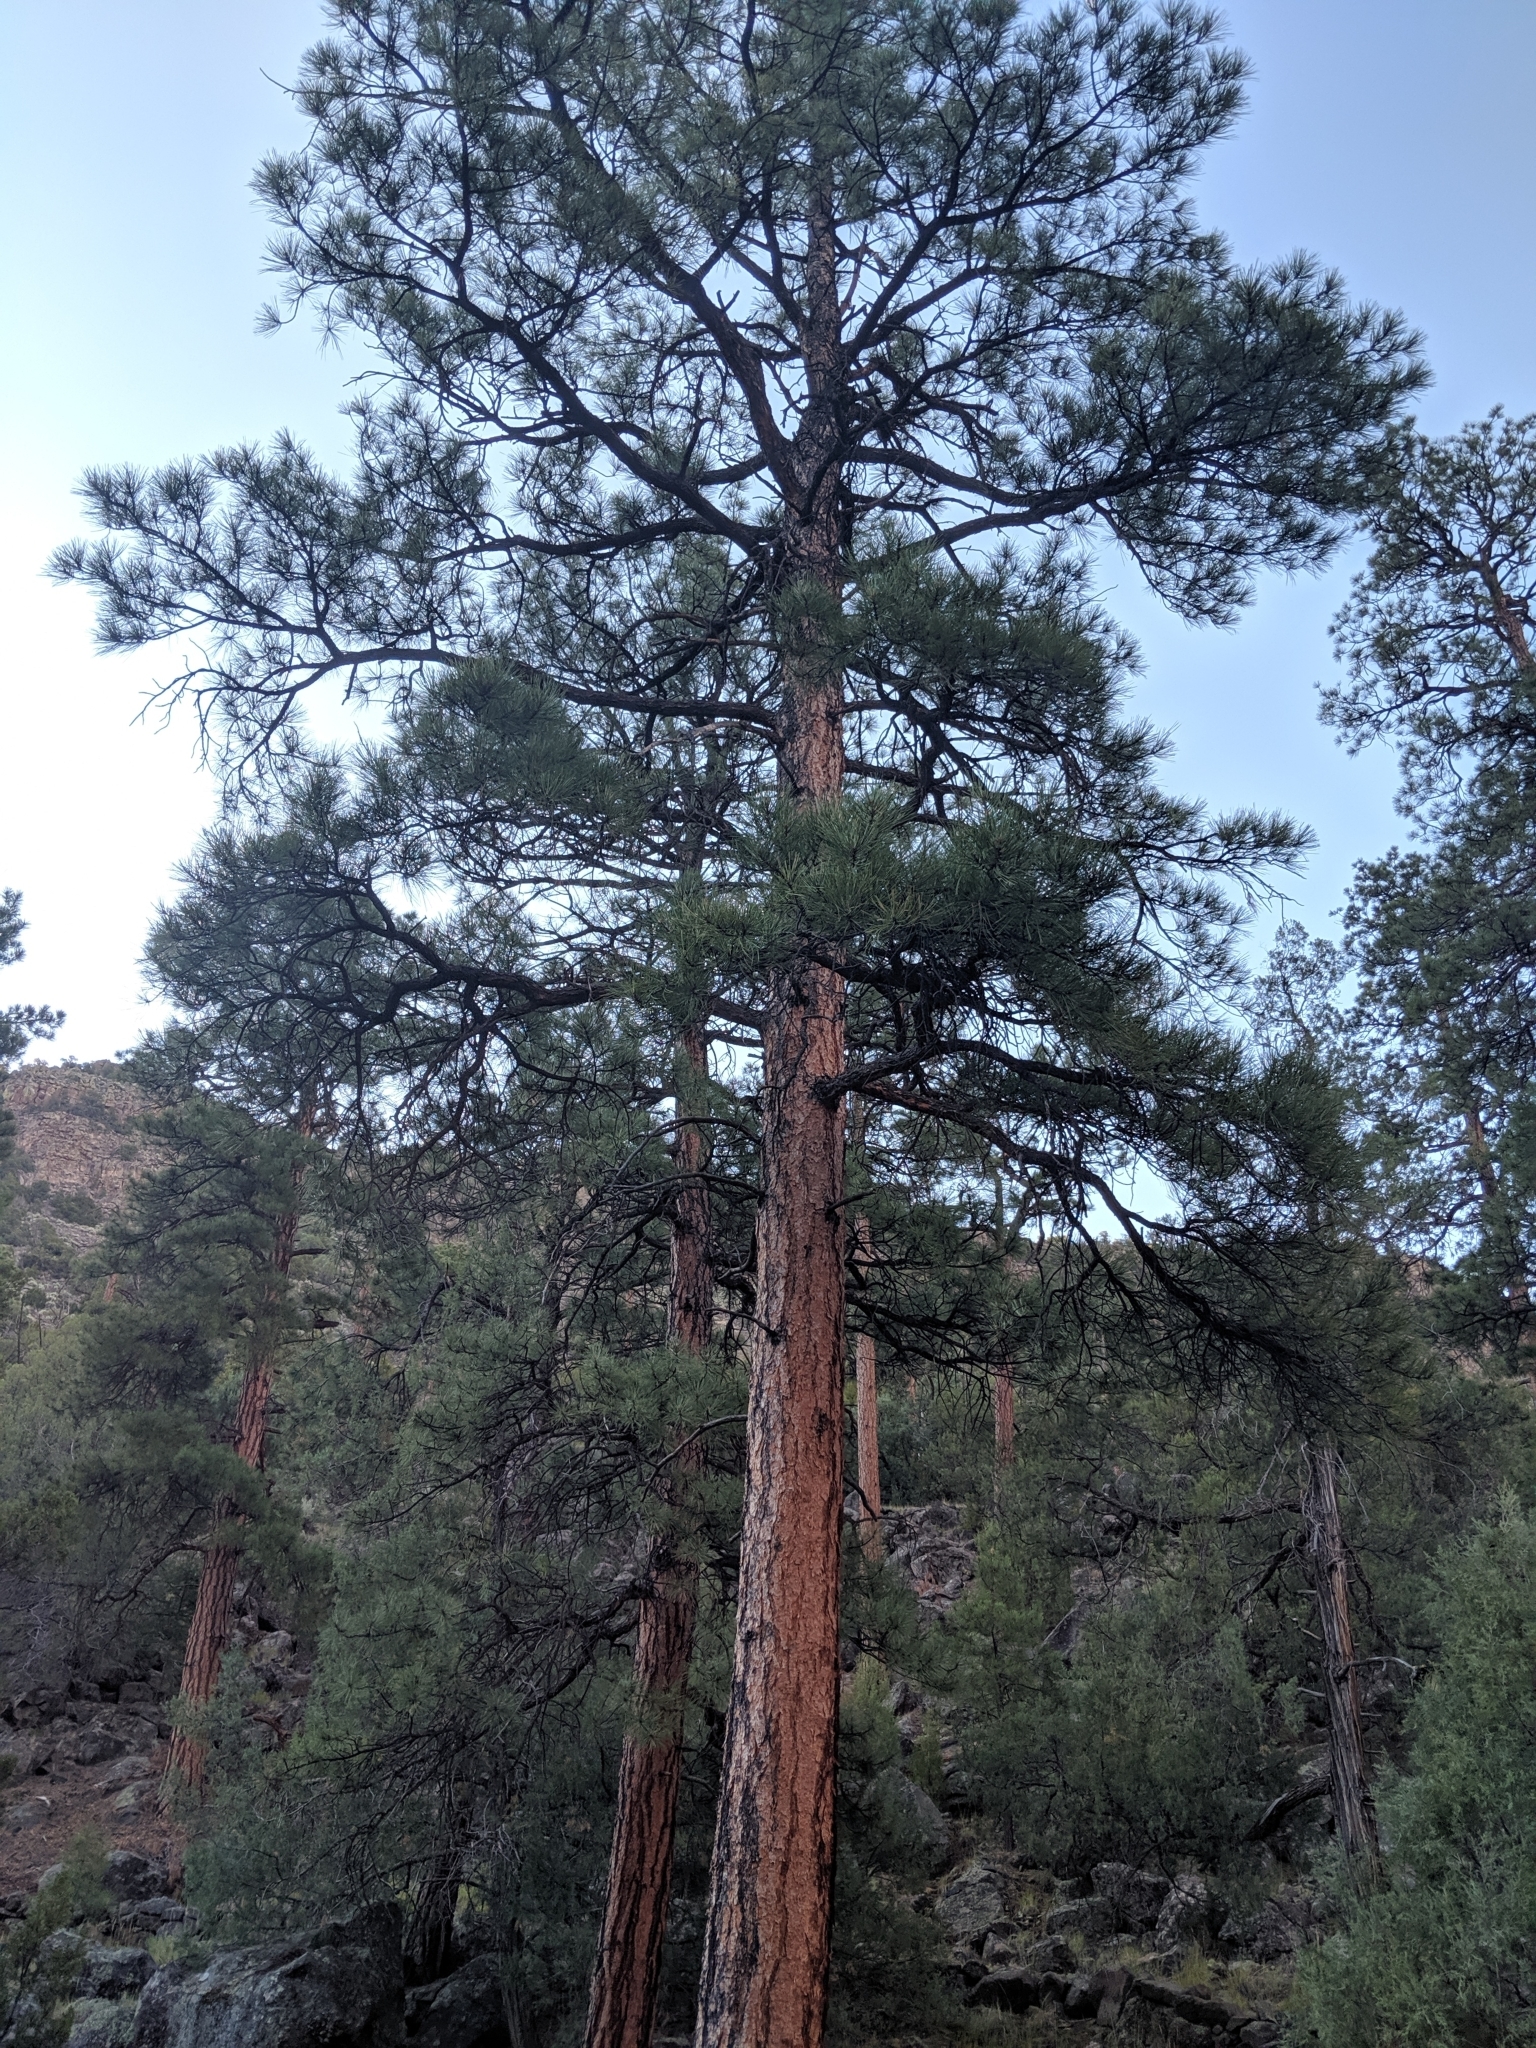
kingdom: Plantae
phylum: Tracheophyta
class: Pinopsida
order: Pinales
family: Pinaceae
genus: Pinus
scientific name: Pinus ponderosa
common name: Western yellow-pine
